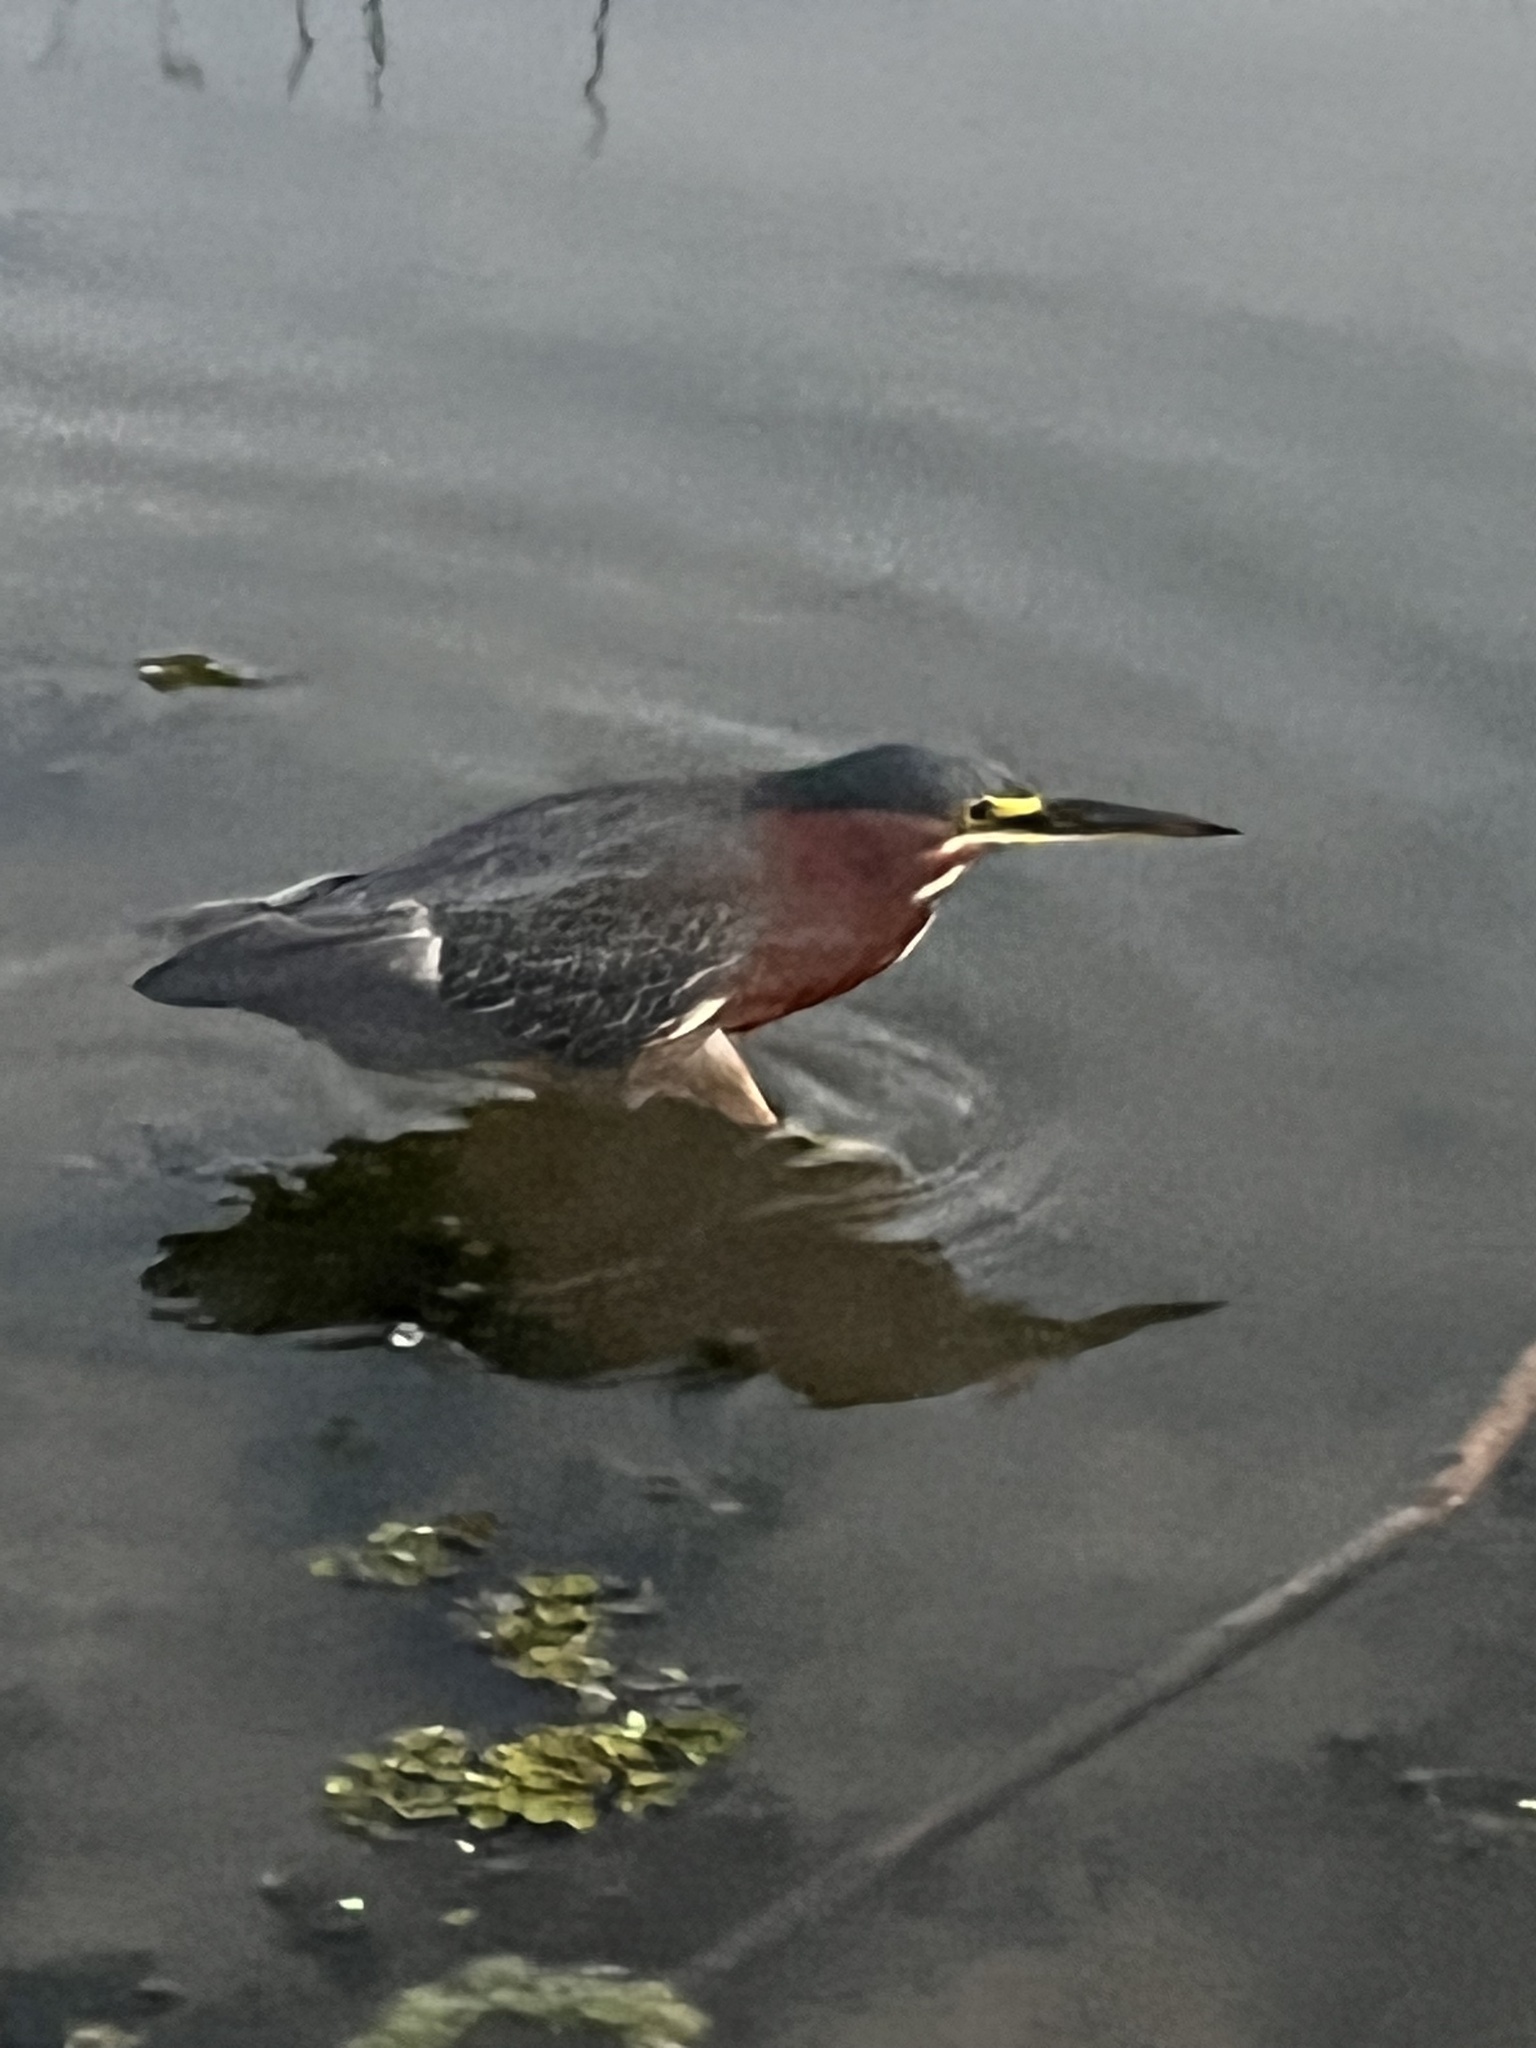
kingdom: Animalia
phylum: Chordata
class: Aves
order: Pelecaniformes
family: Ardeidae
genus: Butorides
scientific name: Butorides virescens
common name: Green heron
